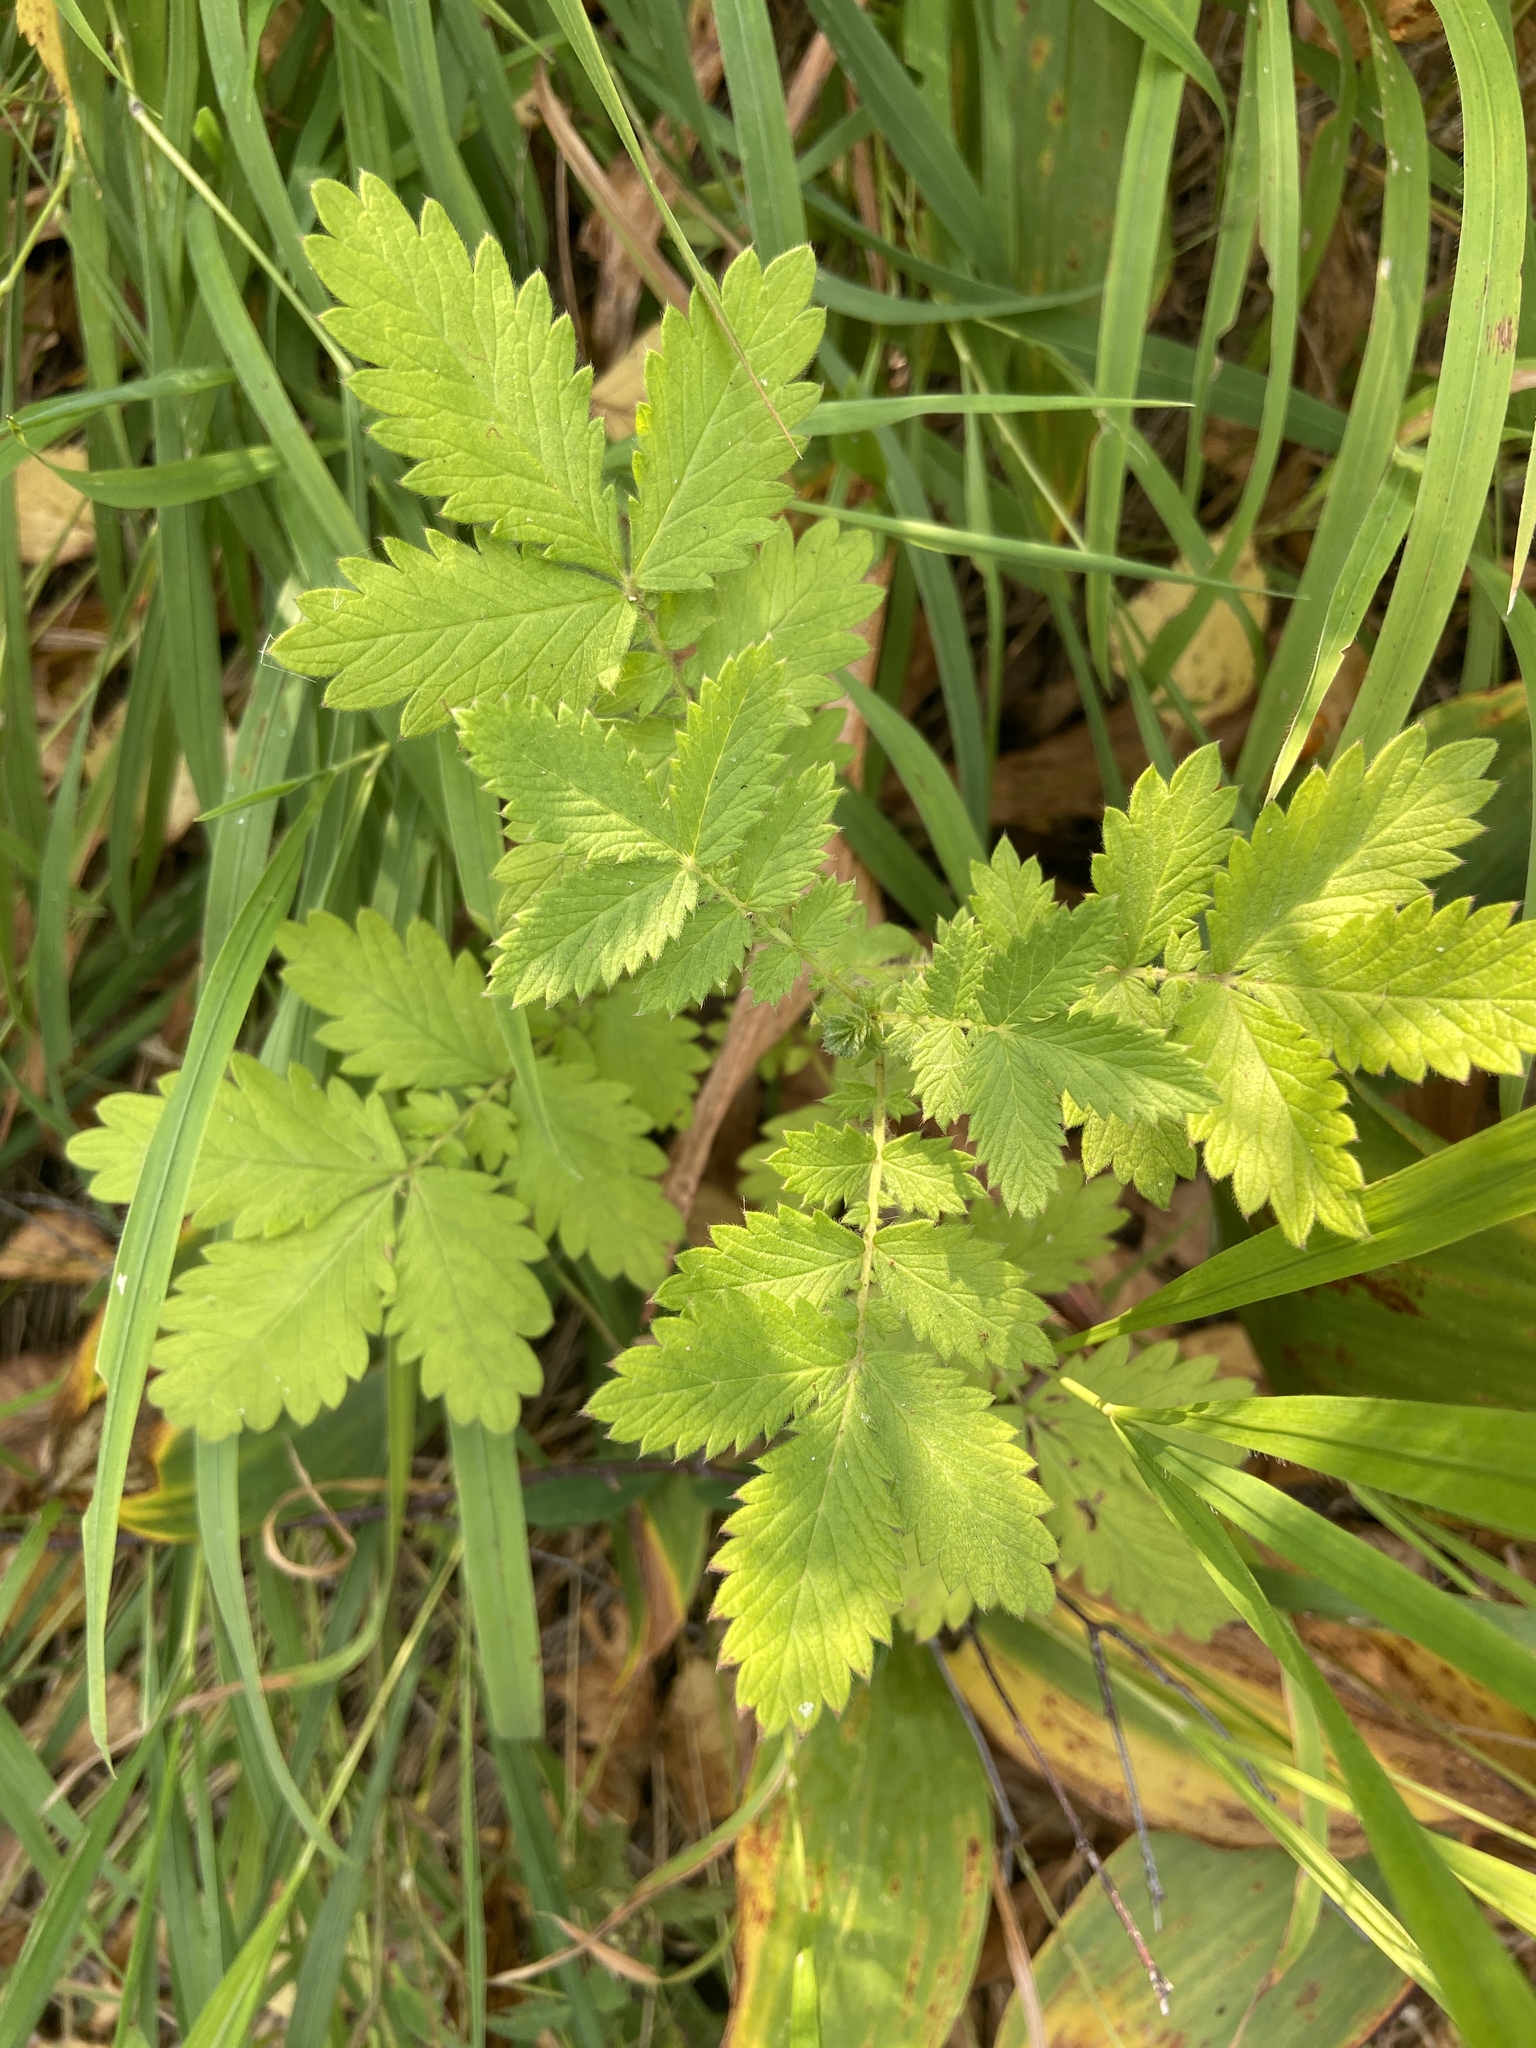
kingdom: Plantae
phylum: Tracheophyta
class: Magnoliopsida
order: Rosales
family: Rosaceae
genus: Agrimonia
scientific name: Agrimonia eupatoria
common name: Agrimony
